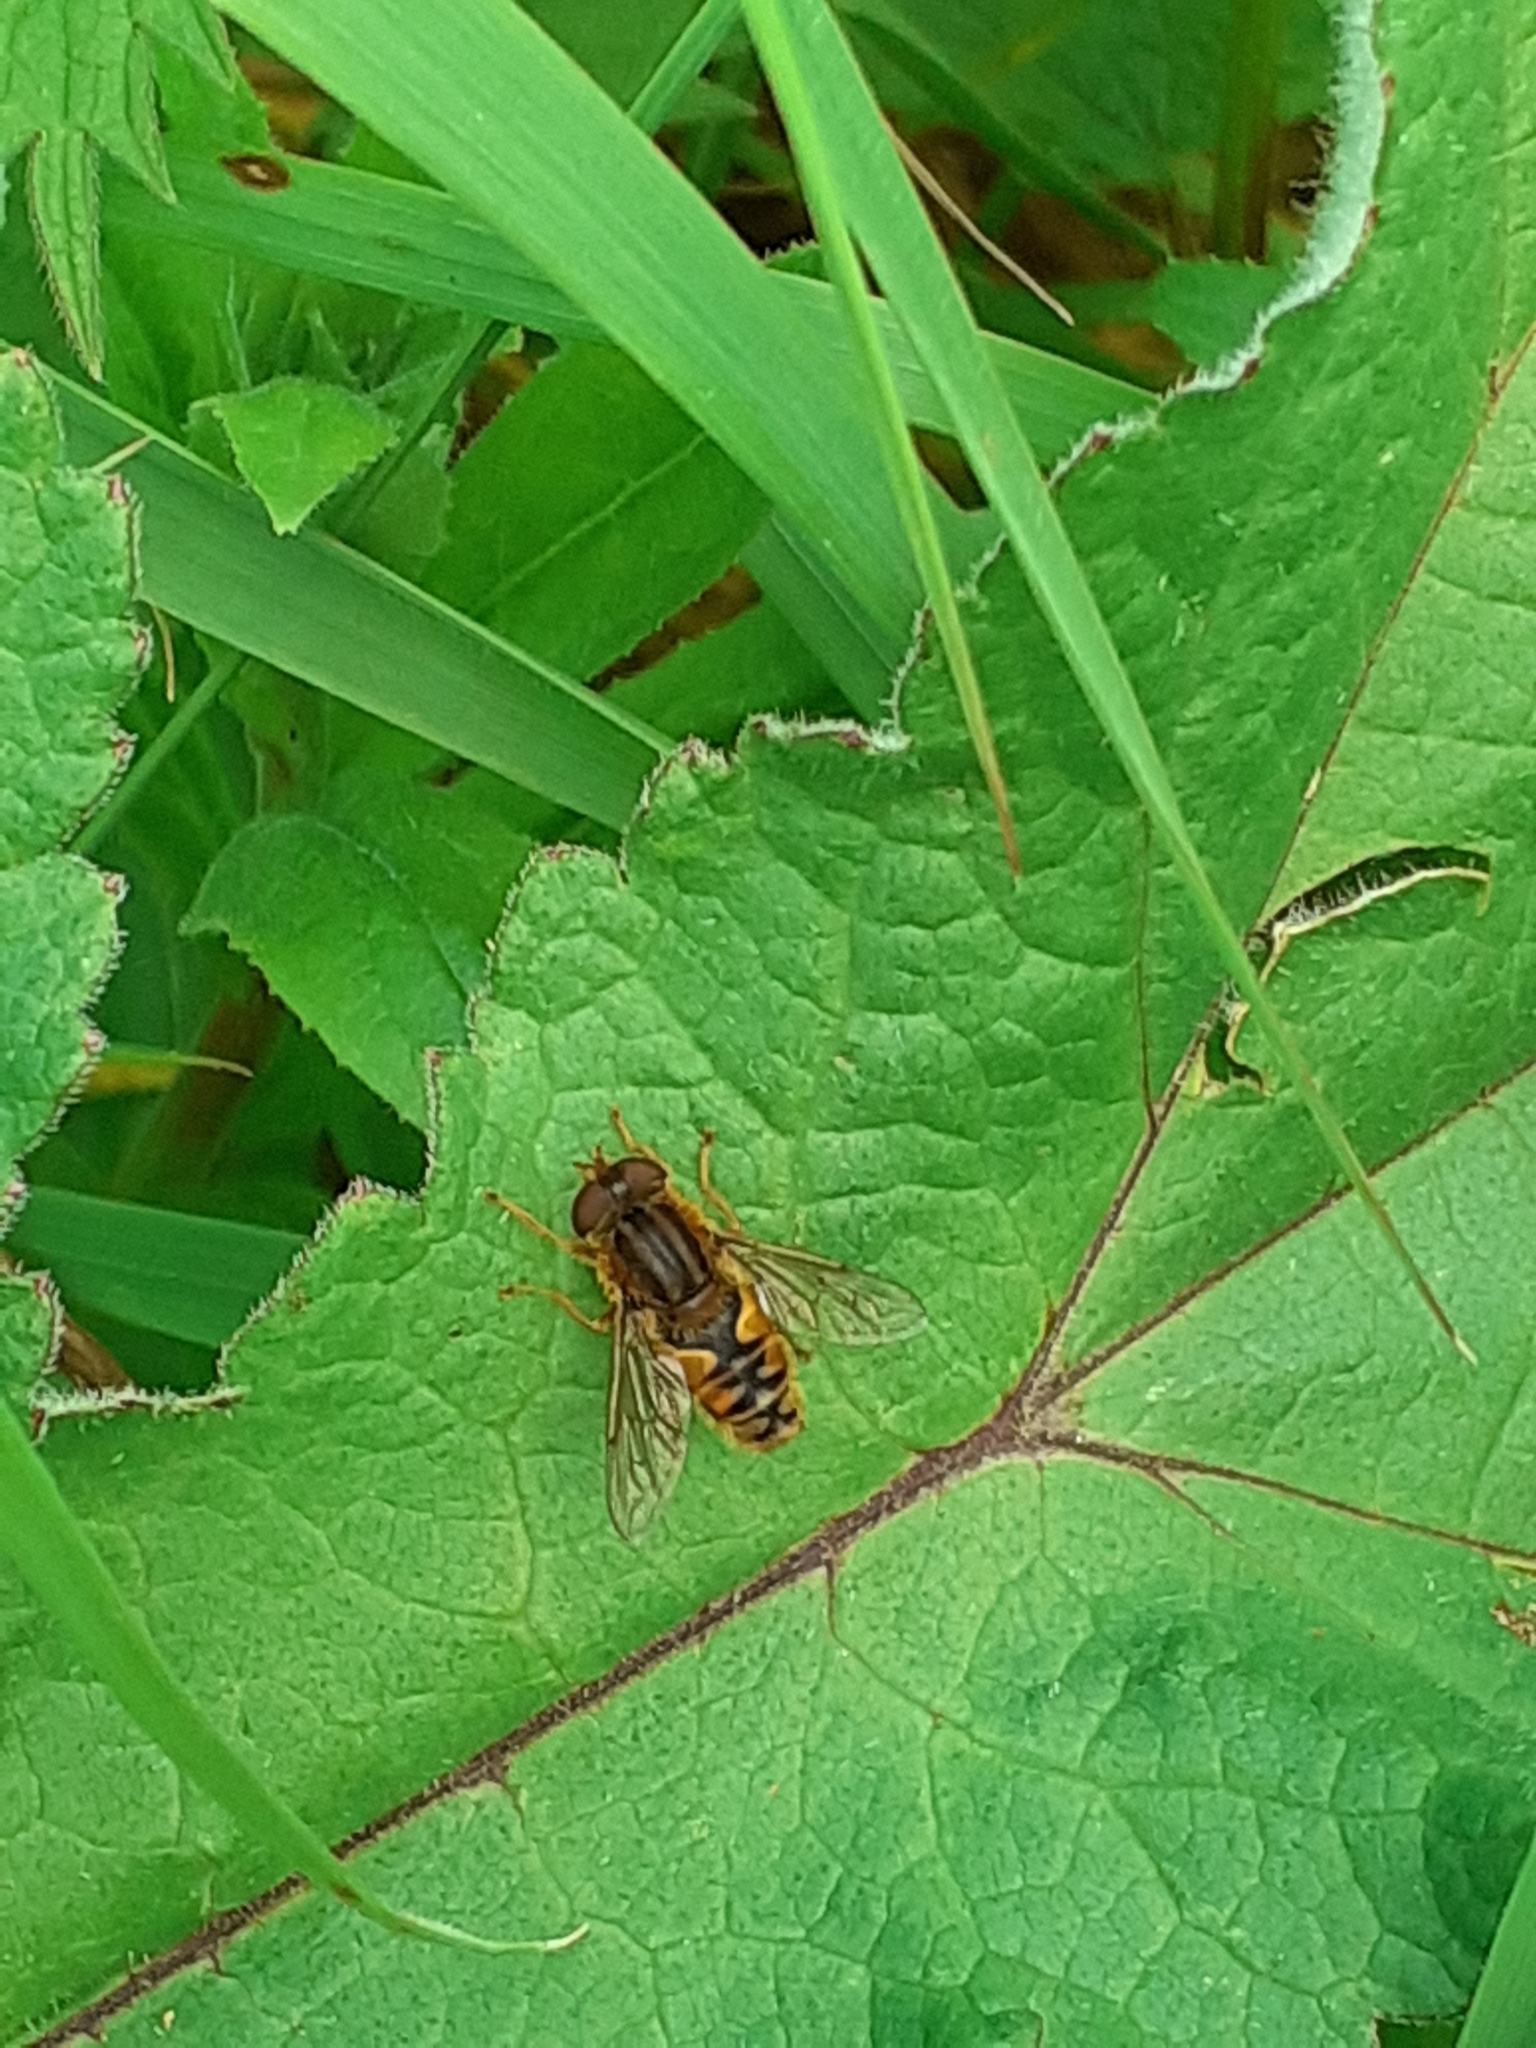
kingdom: Animalia
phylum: Arthropoda
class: Insecta
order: Diptera
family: Syrphidae
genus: Parhelophilus
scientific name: Parhelophilus
